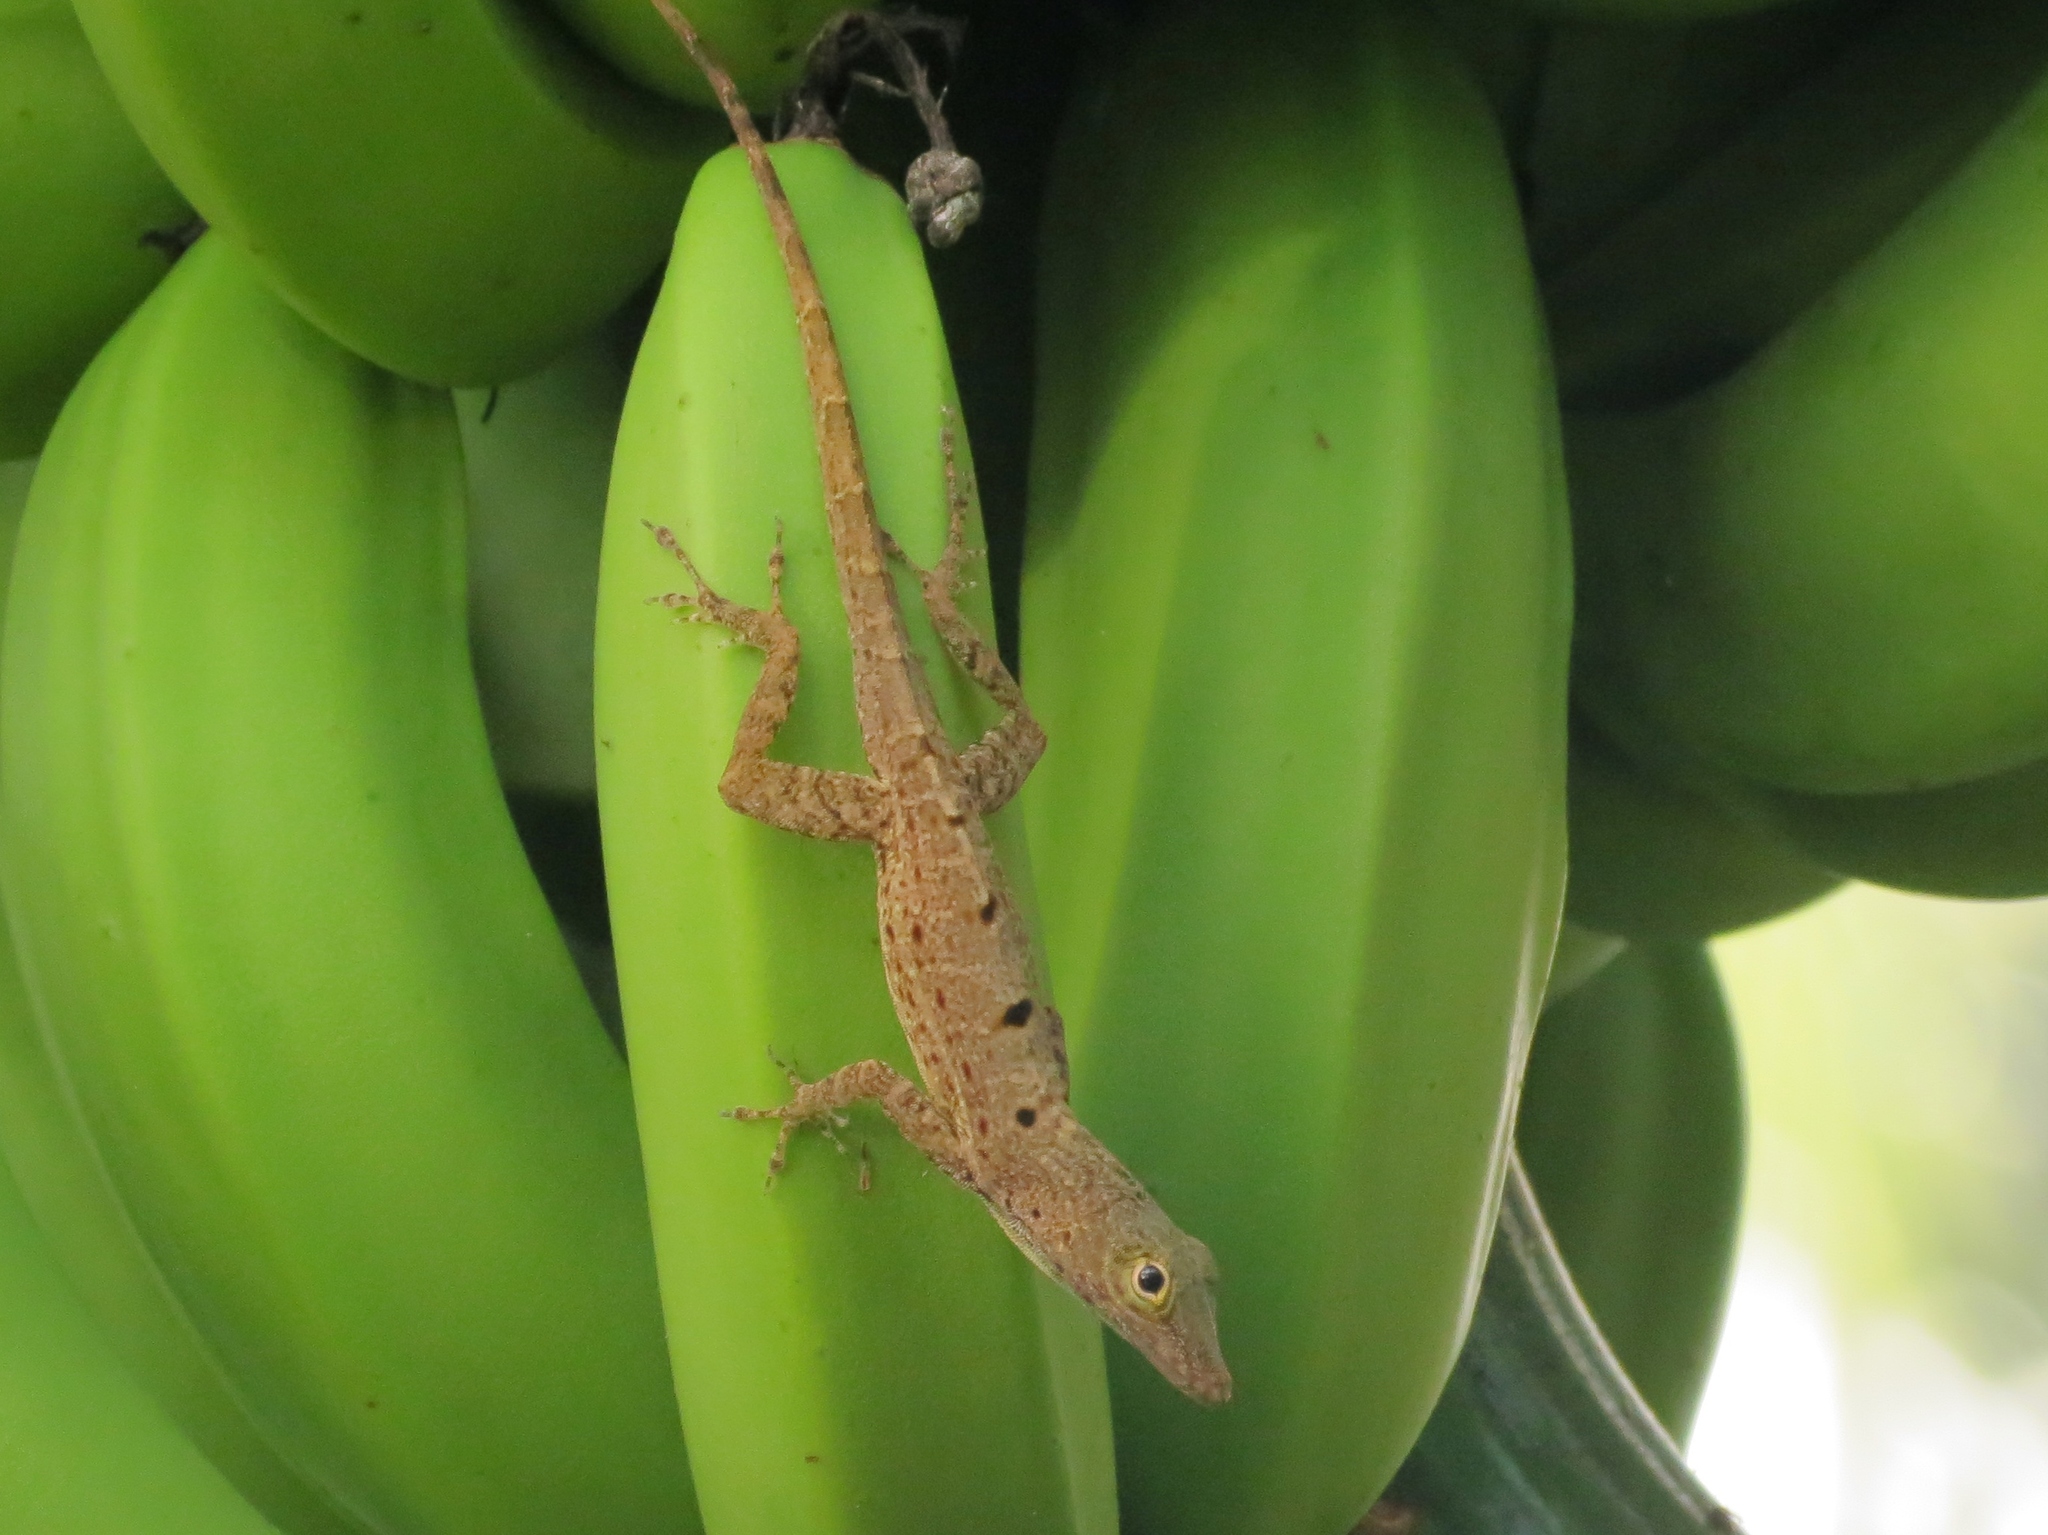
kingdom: Animalia
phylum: Chordata
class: Squamata
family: Dactyloidae
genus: Anolis
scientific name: Anolis stratulus
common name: Banded anole
